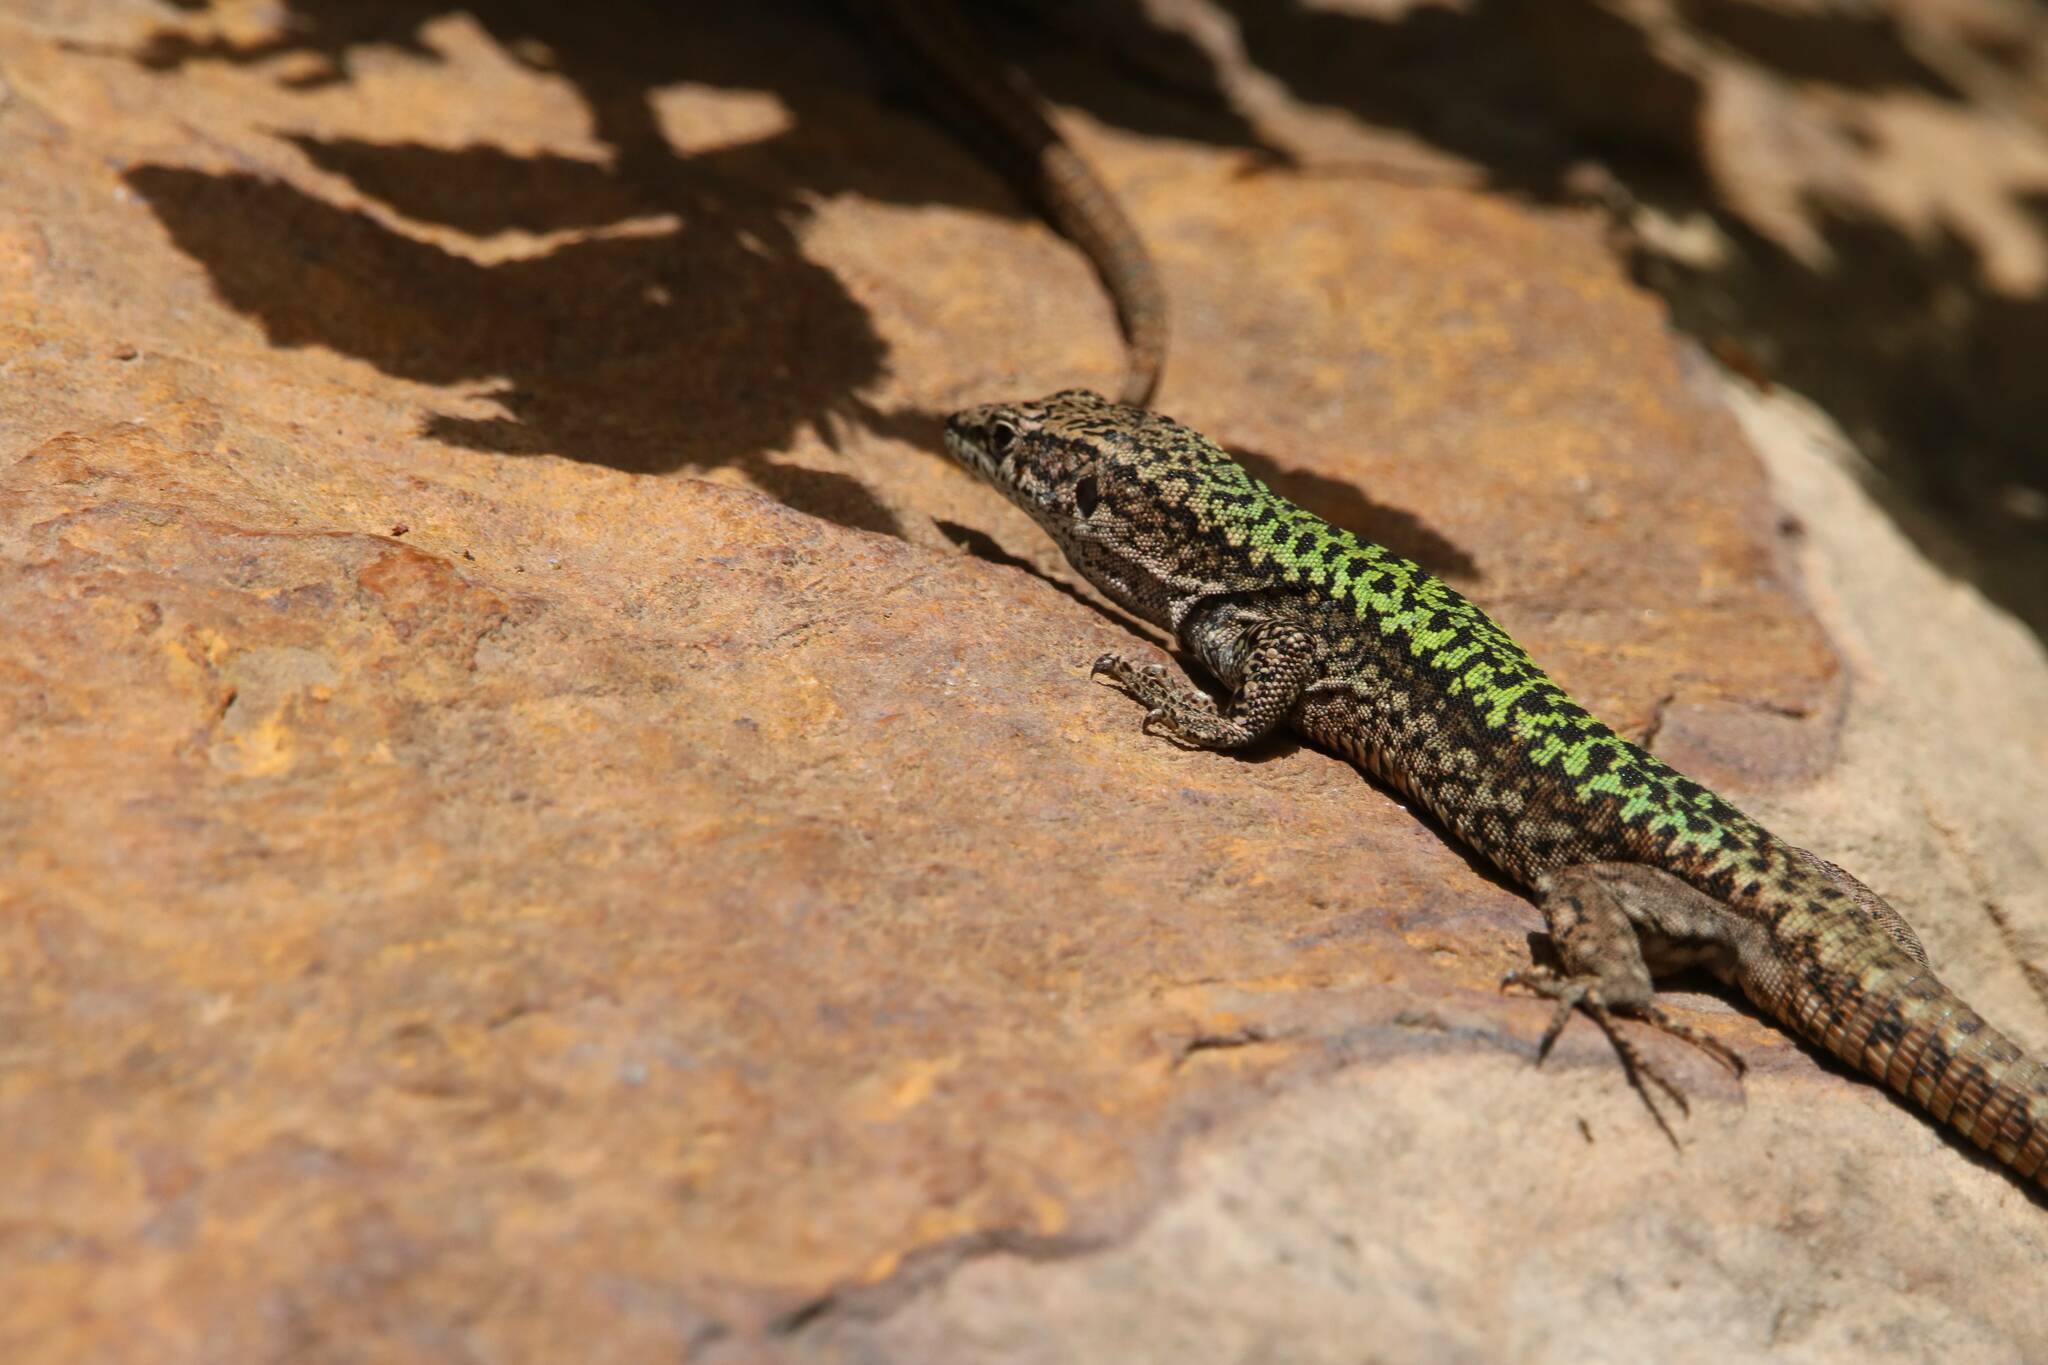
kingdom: Animalia
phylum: Chordata
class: Squamata
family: Lacertidae
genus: Podarcis
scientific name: Podarcis vaucheri
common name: Vaucher's wall lizard
